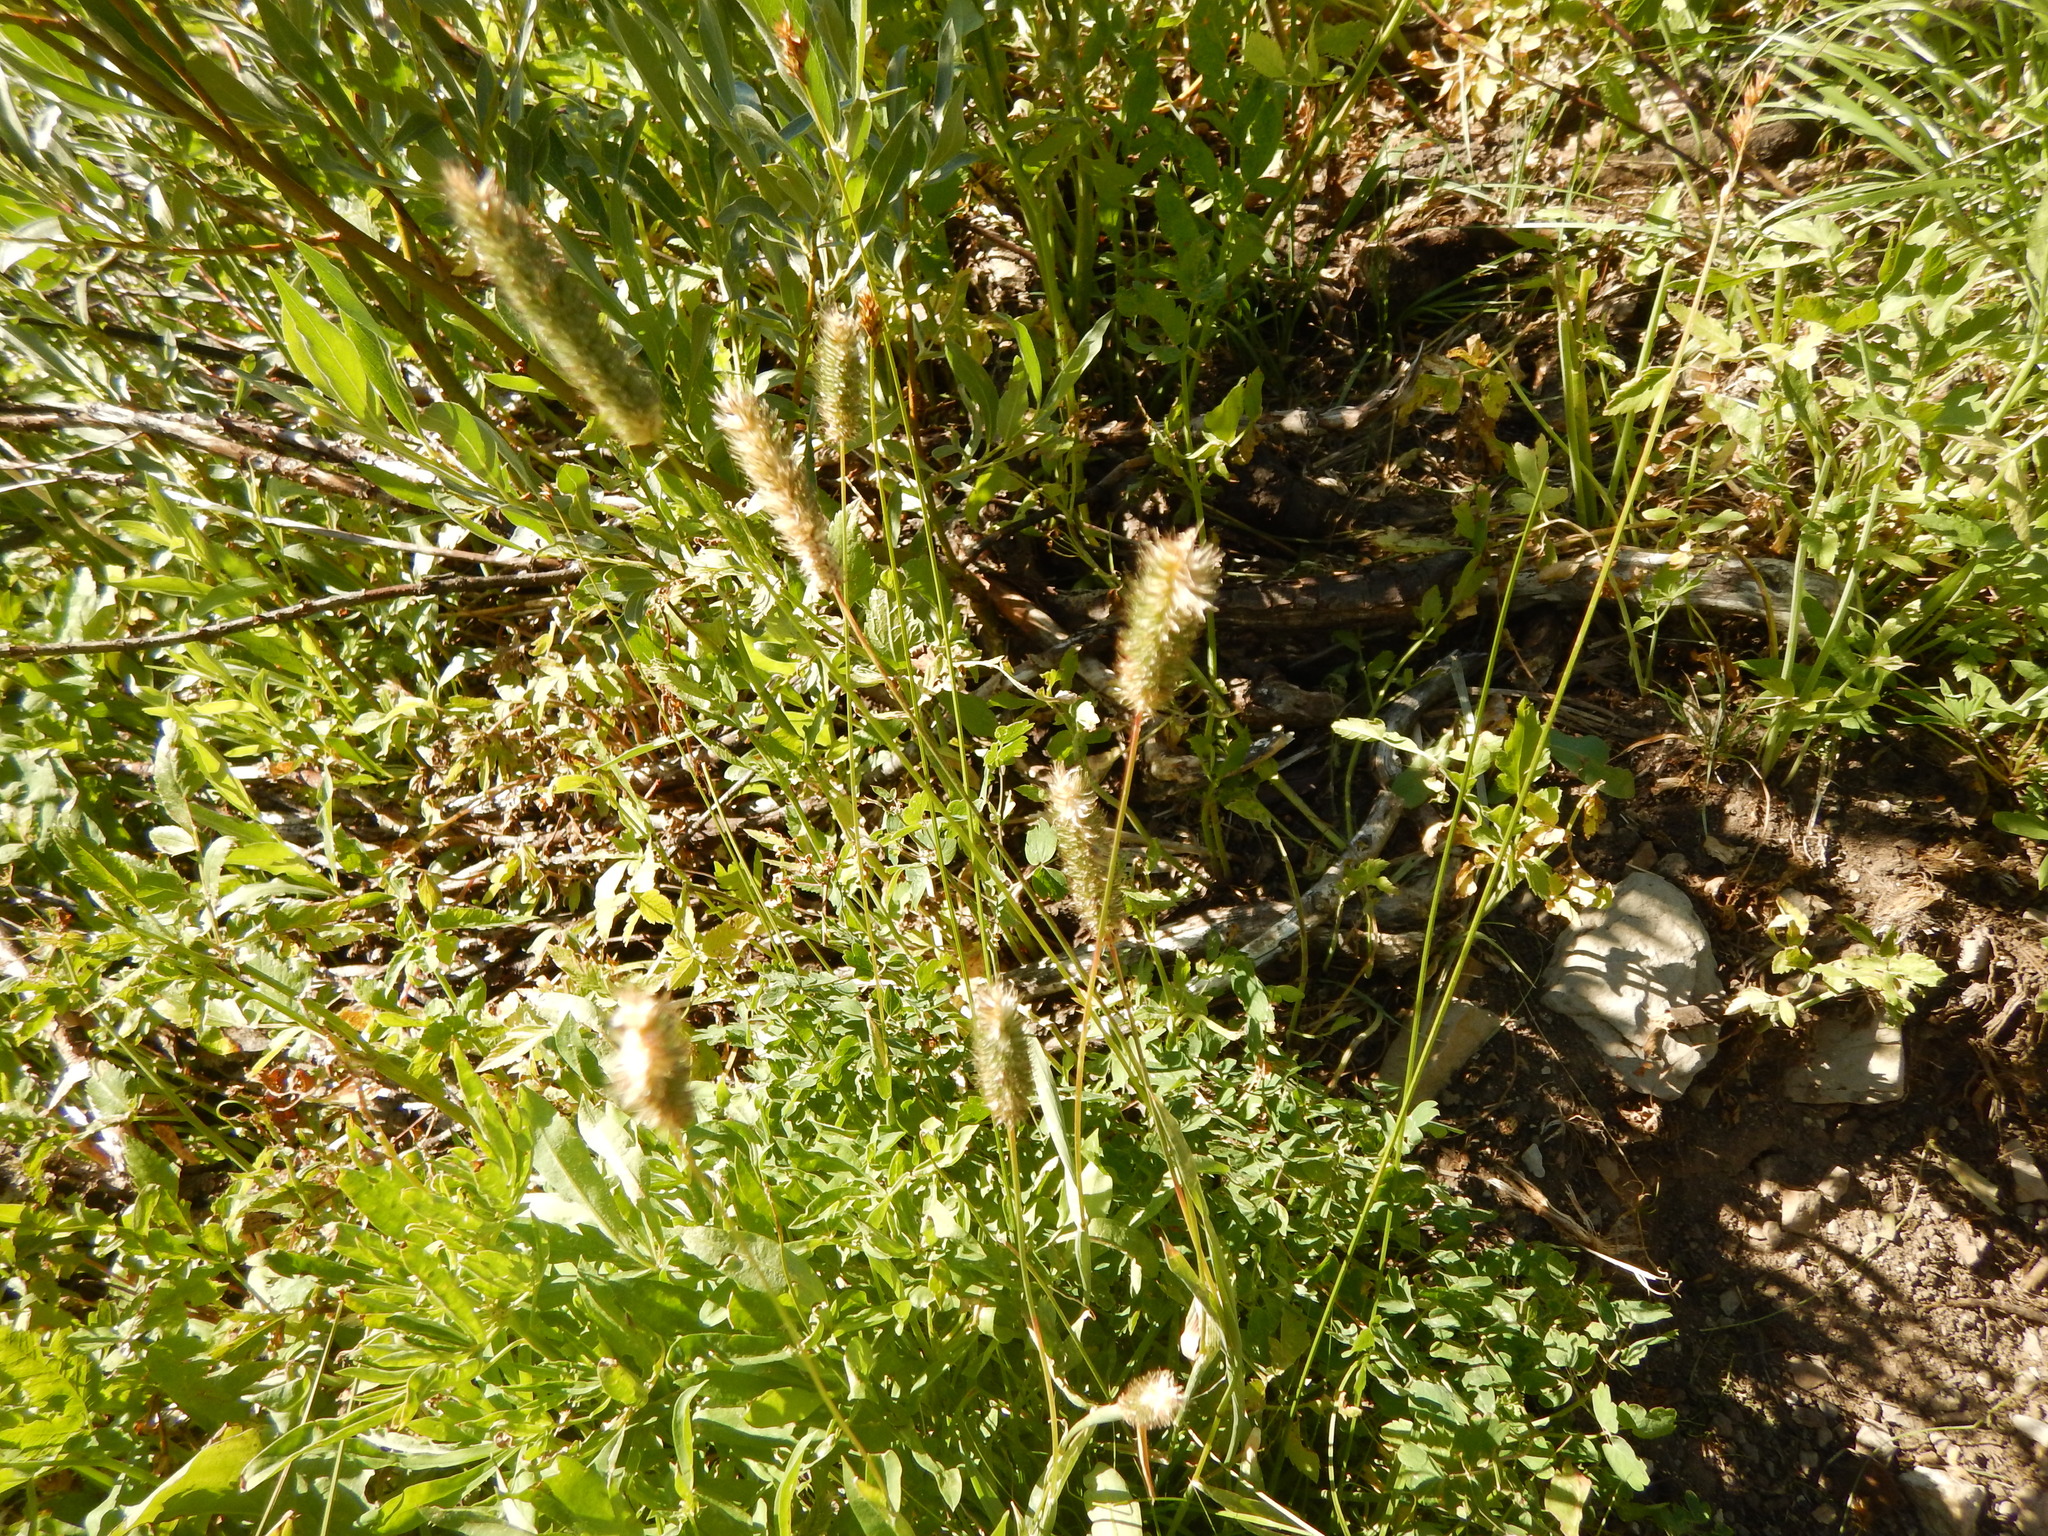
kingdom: Plantae
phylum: Tracheophyta
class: Liliopsida
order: Poales
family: Poaceae
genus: Phleum
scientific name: Phleum alpinum
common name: Alpine cat's-tail
